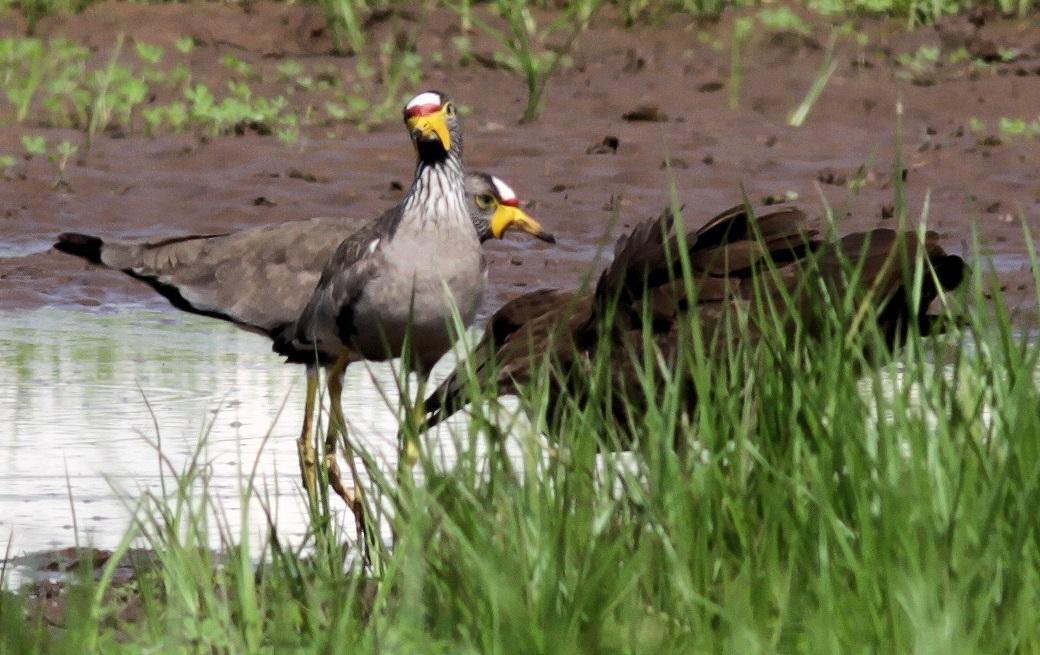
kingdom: Animalia
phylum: Chordata
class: Aves
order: Charadriiformes
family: Charadriidae
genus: Vanellus
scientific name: Vanellus senegallus
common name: African wattled lapwing
